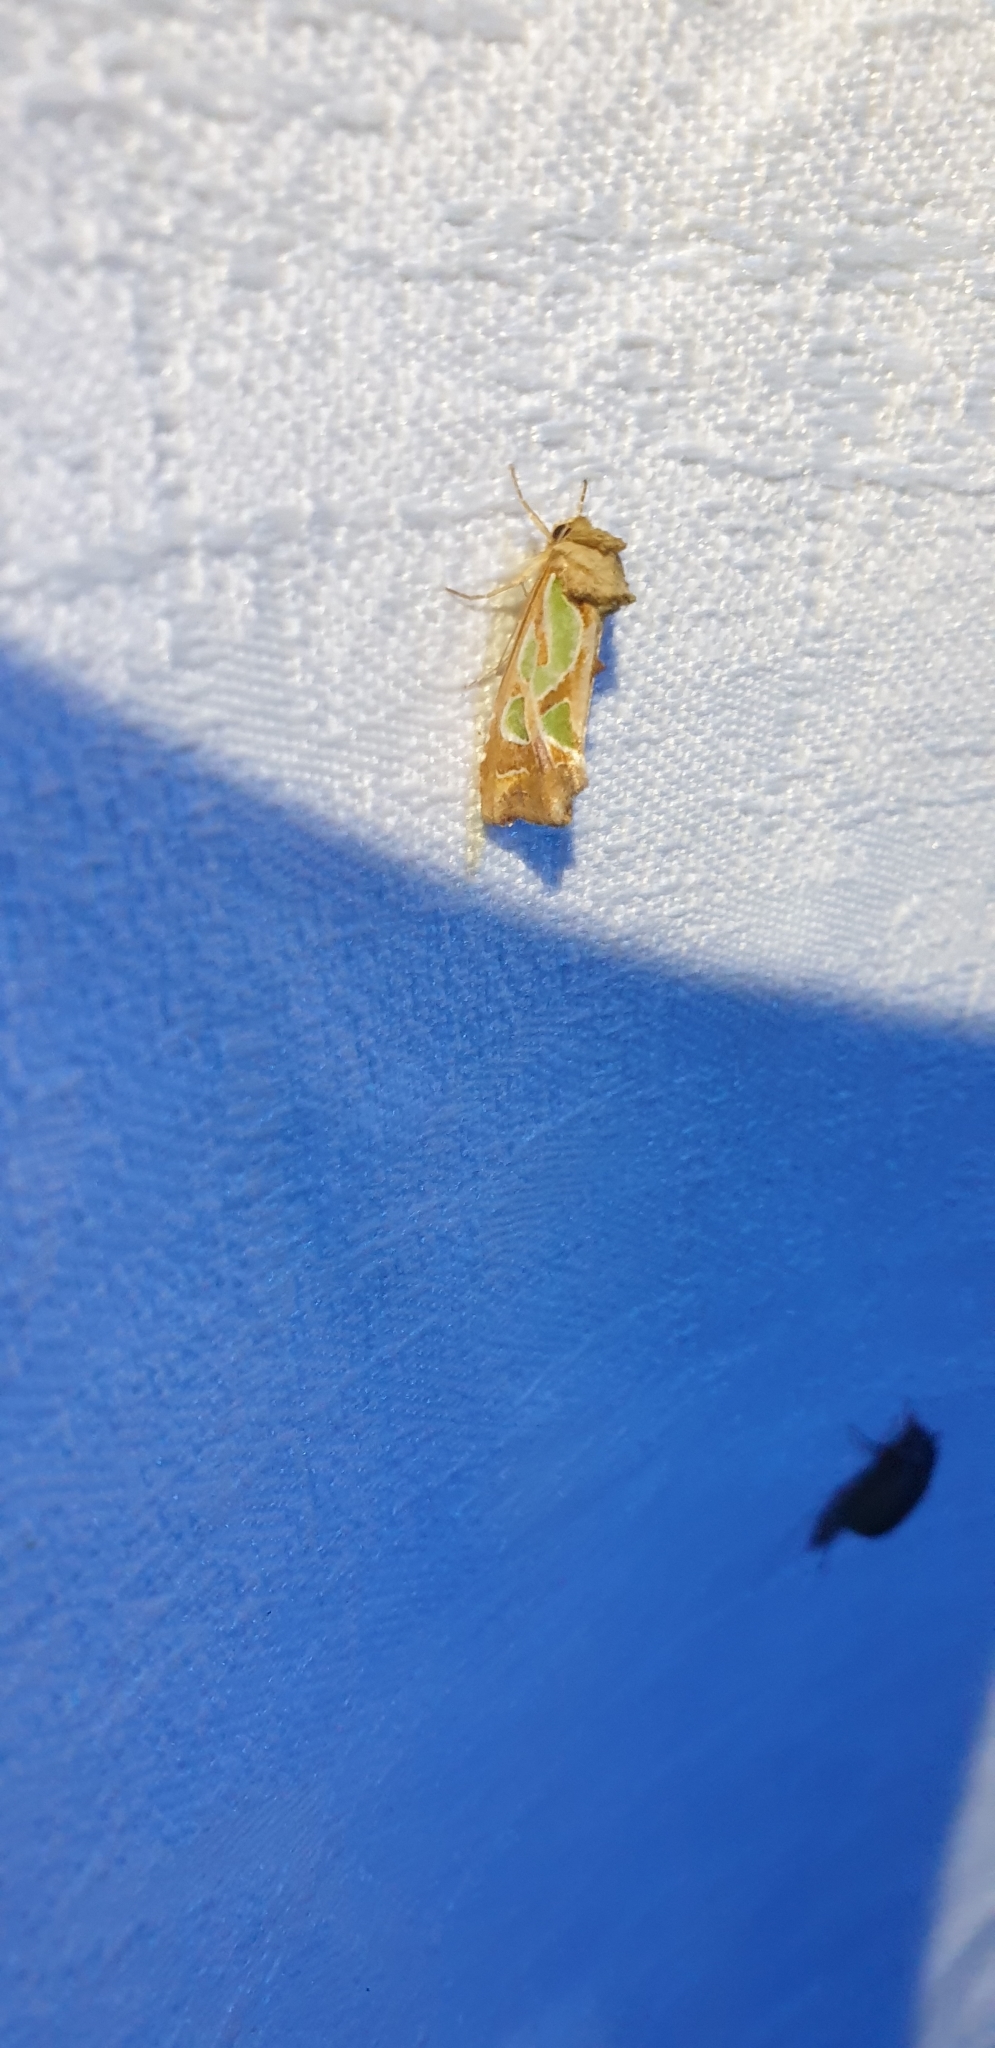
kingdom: Animalia
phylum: Arthropoda
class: Insecta
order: Lepidoptera
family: Noctuidae
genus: Cosmodes
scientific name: Cosmodes elegans
